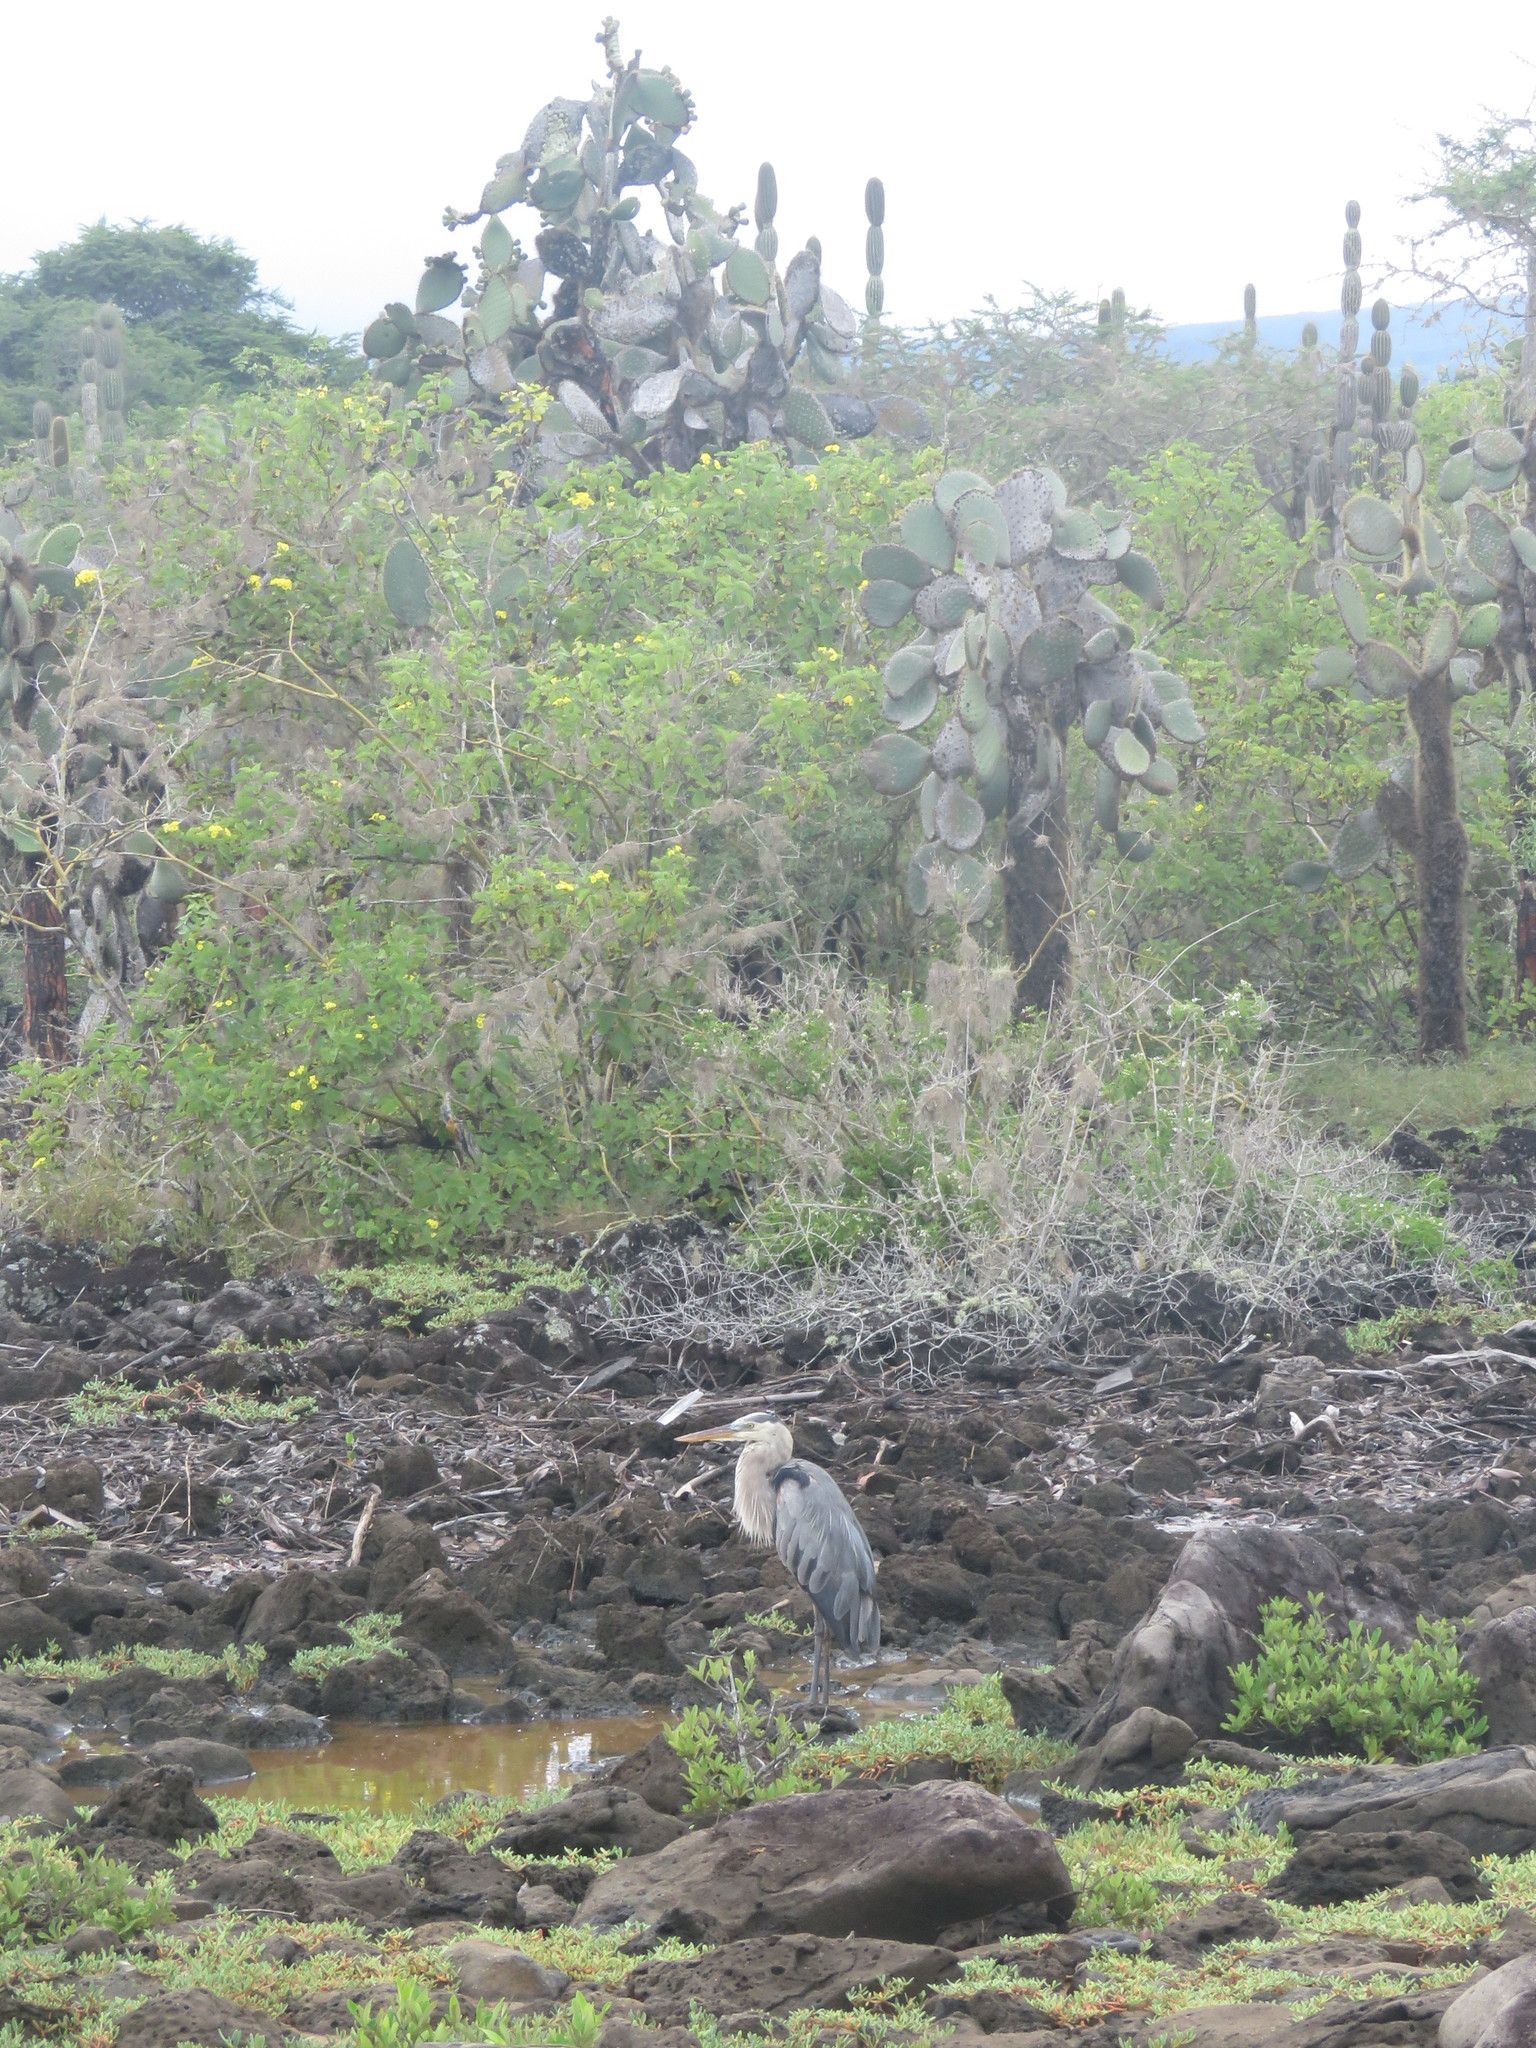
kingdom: Plantae
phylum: Tracheophyta
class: Magnoliopsida
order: Caryophyllales
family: Cactaceae
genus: Opuntia
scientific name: Opuntia galapageia
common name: Galápagos prickly pear
